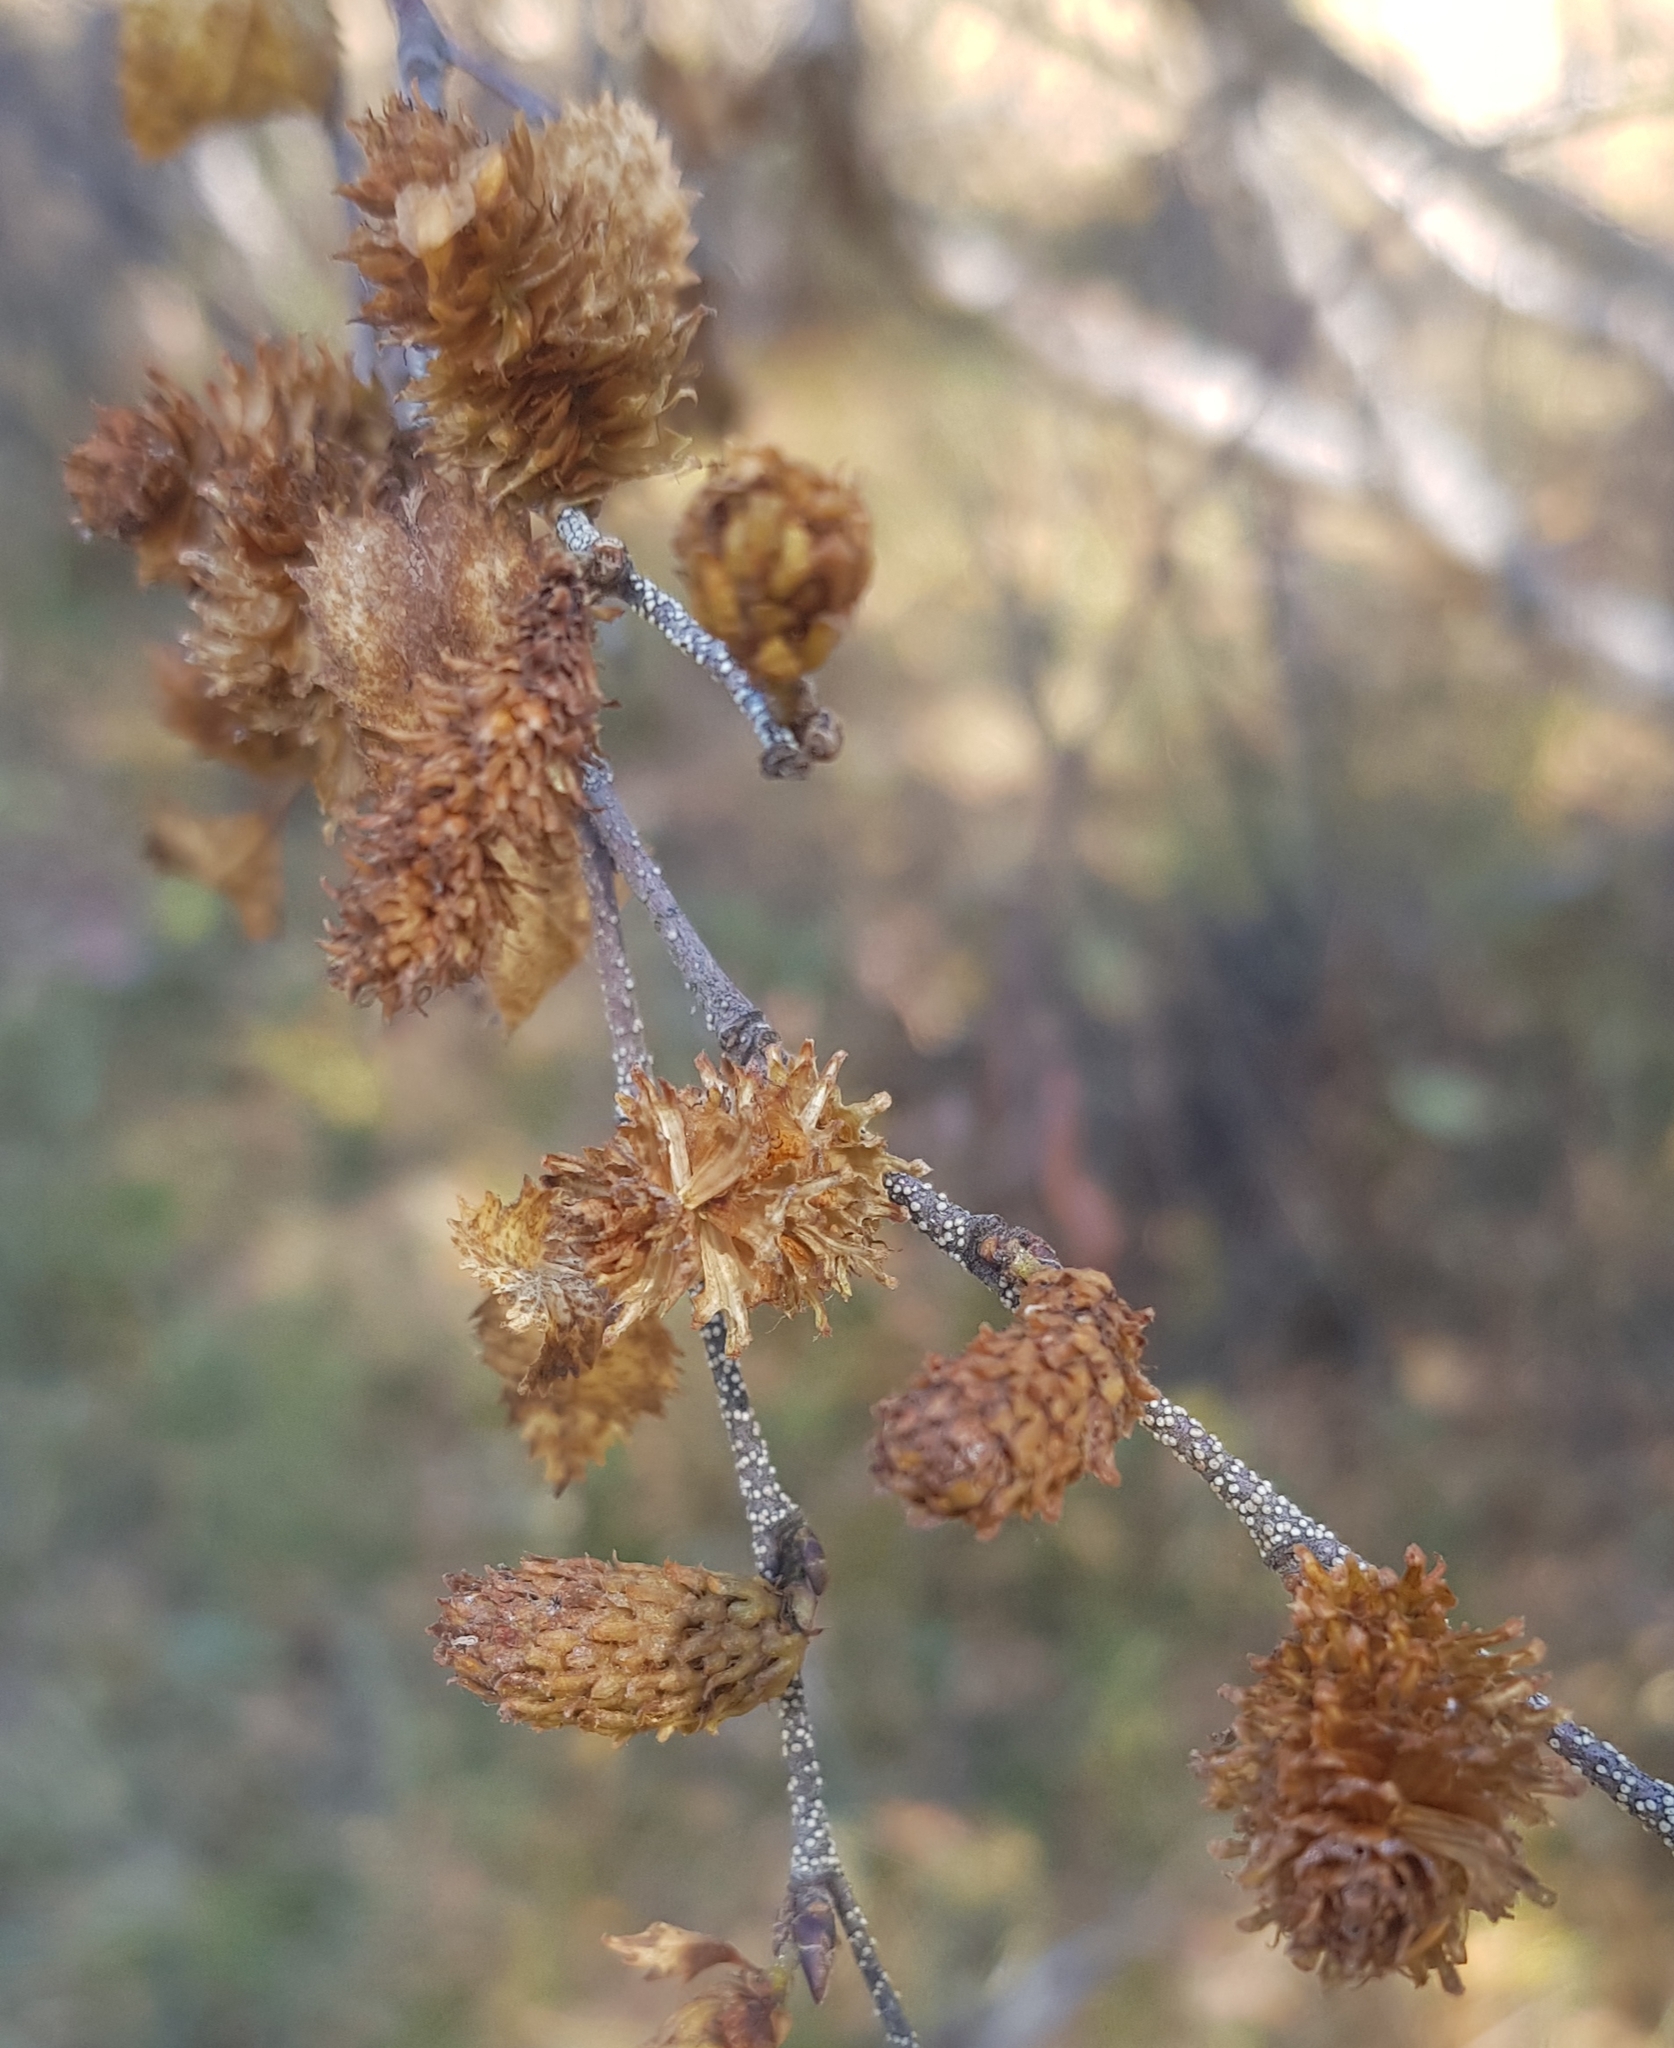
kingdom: Plantae
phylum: Tracheophyta
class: Magnoliopsida
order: Fagales
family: Betulaceae
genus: Betula
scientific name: Betula fruticosa
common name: Japanese bog birch
